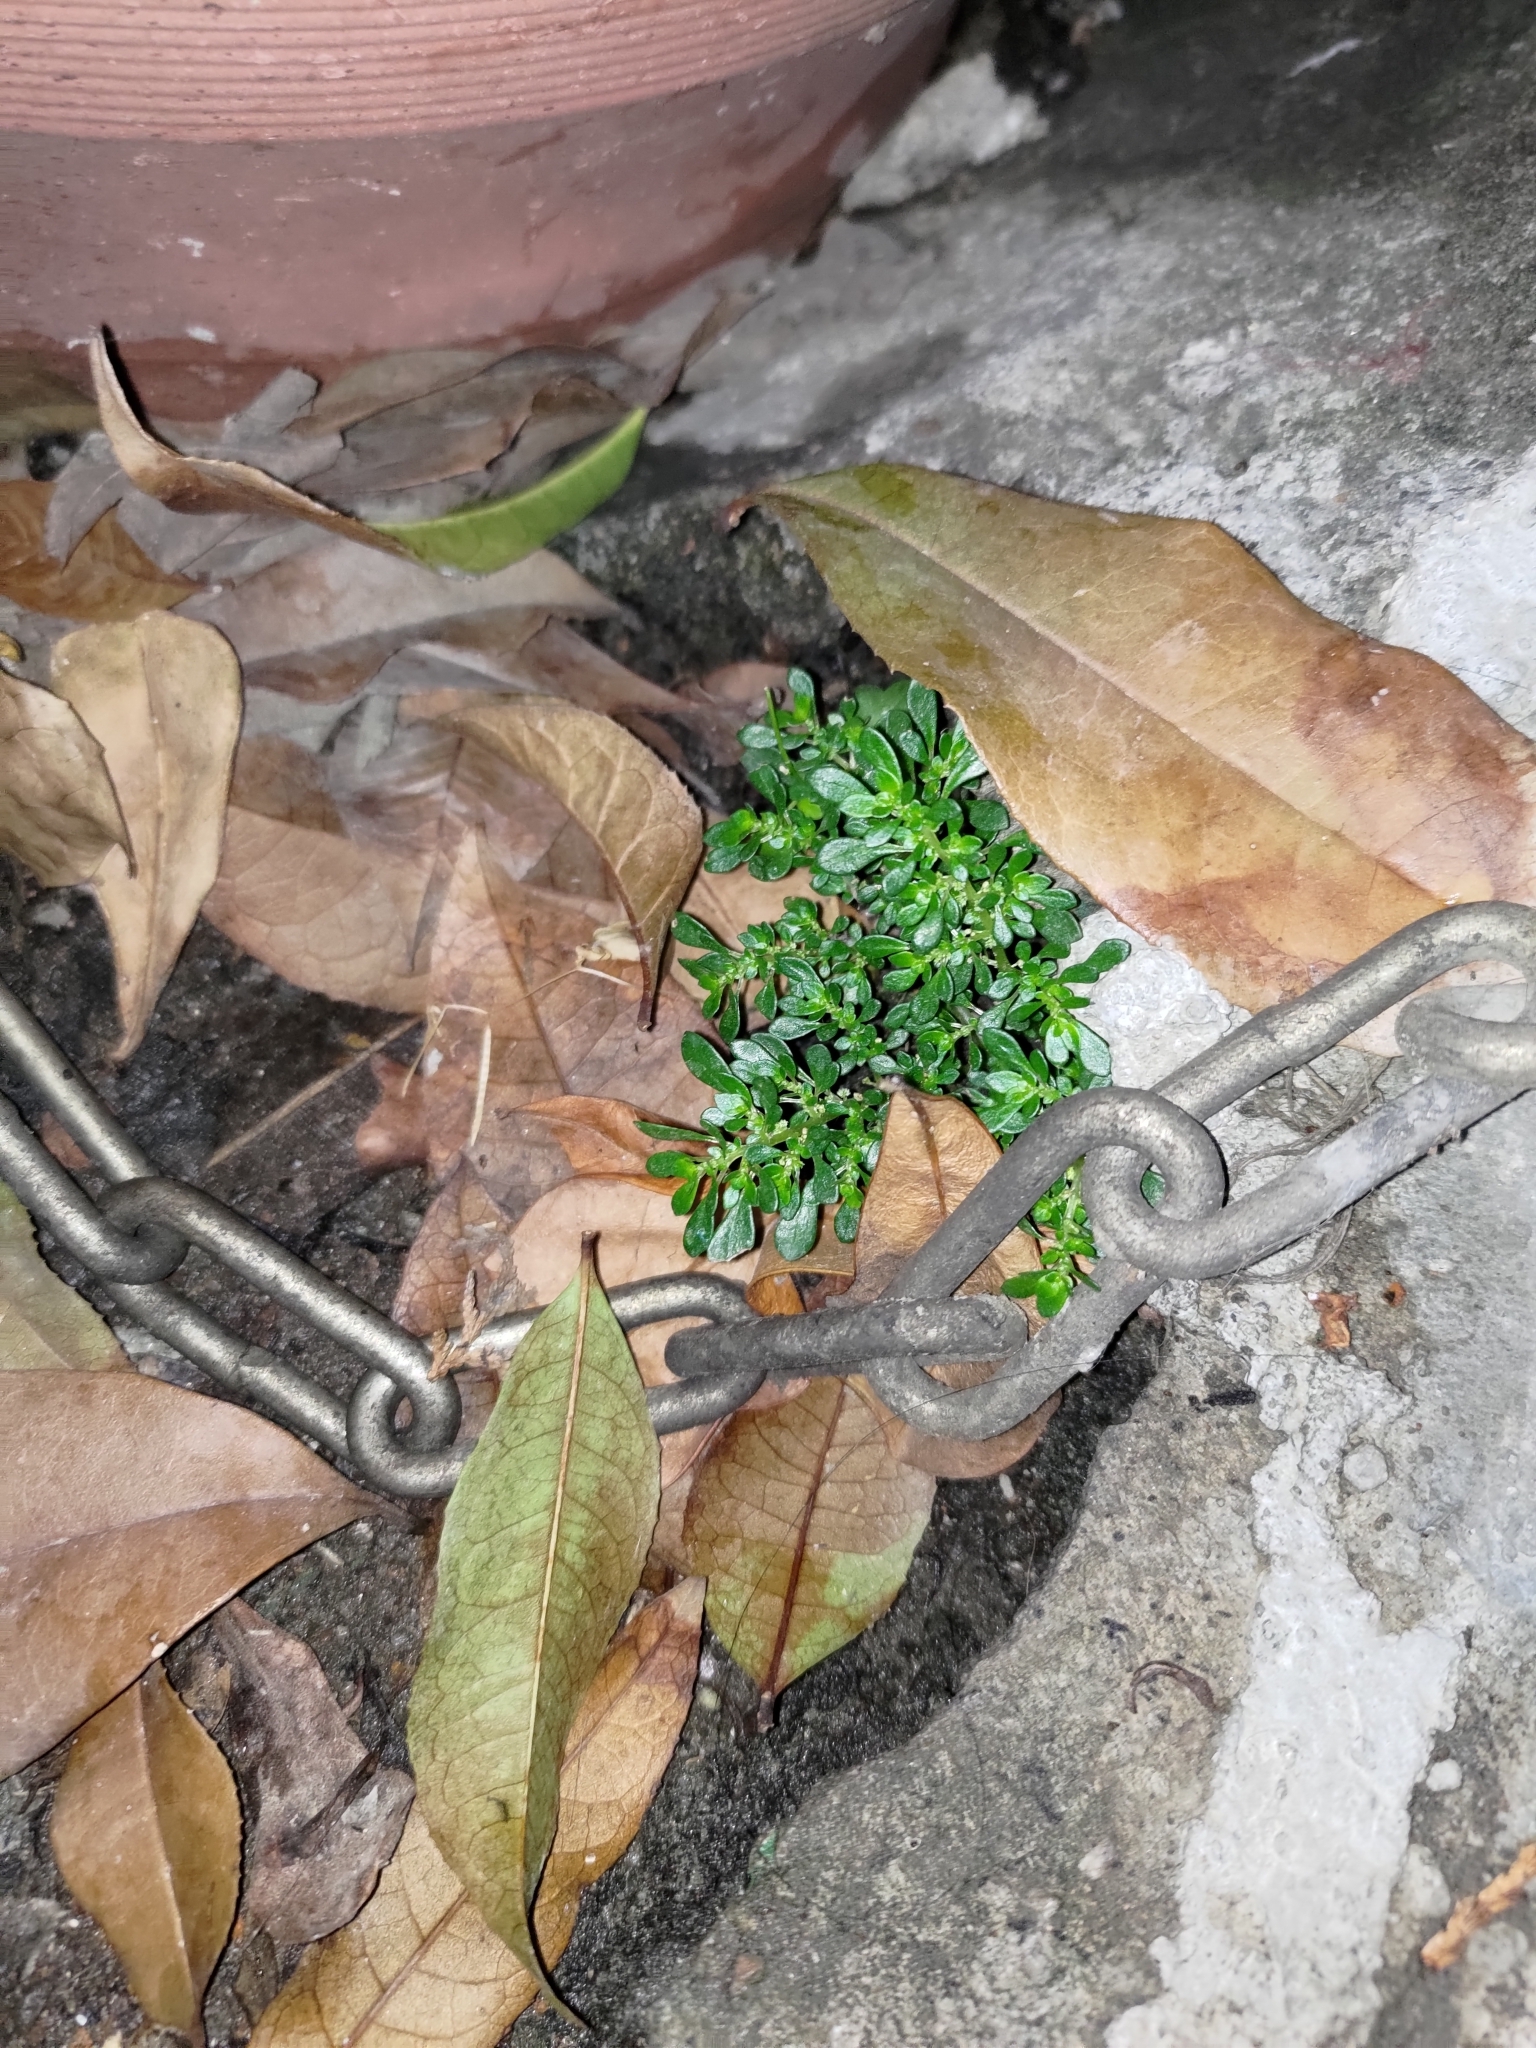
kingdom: Plantae
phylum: Tracheophyta
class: Magnoliopsida
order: Rosales
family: Urticaceae
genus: Pilea
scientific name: Pilea microphylla
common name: Artillery-plant
